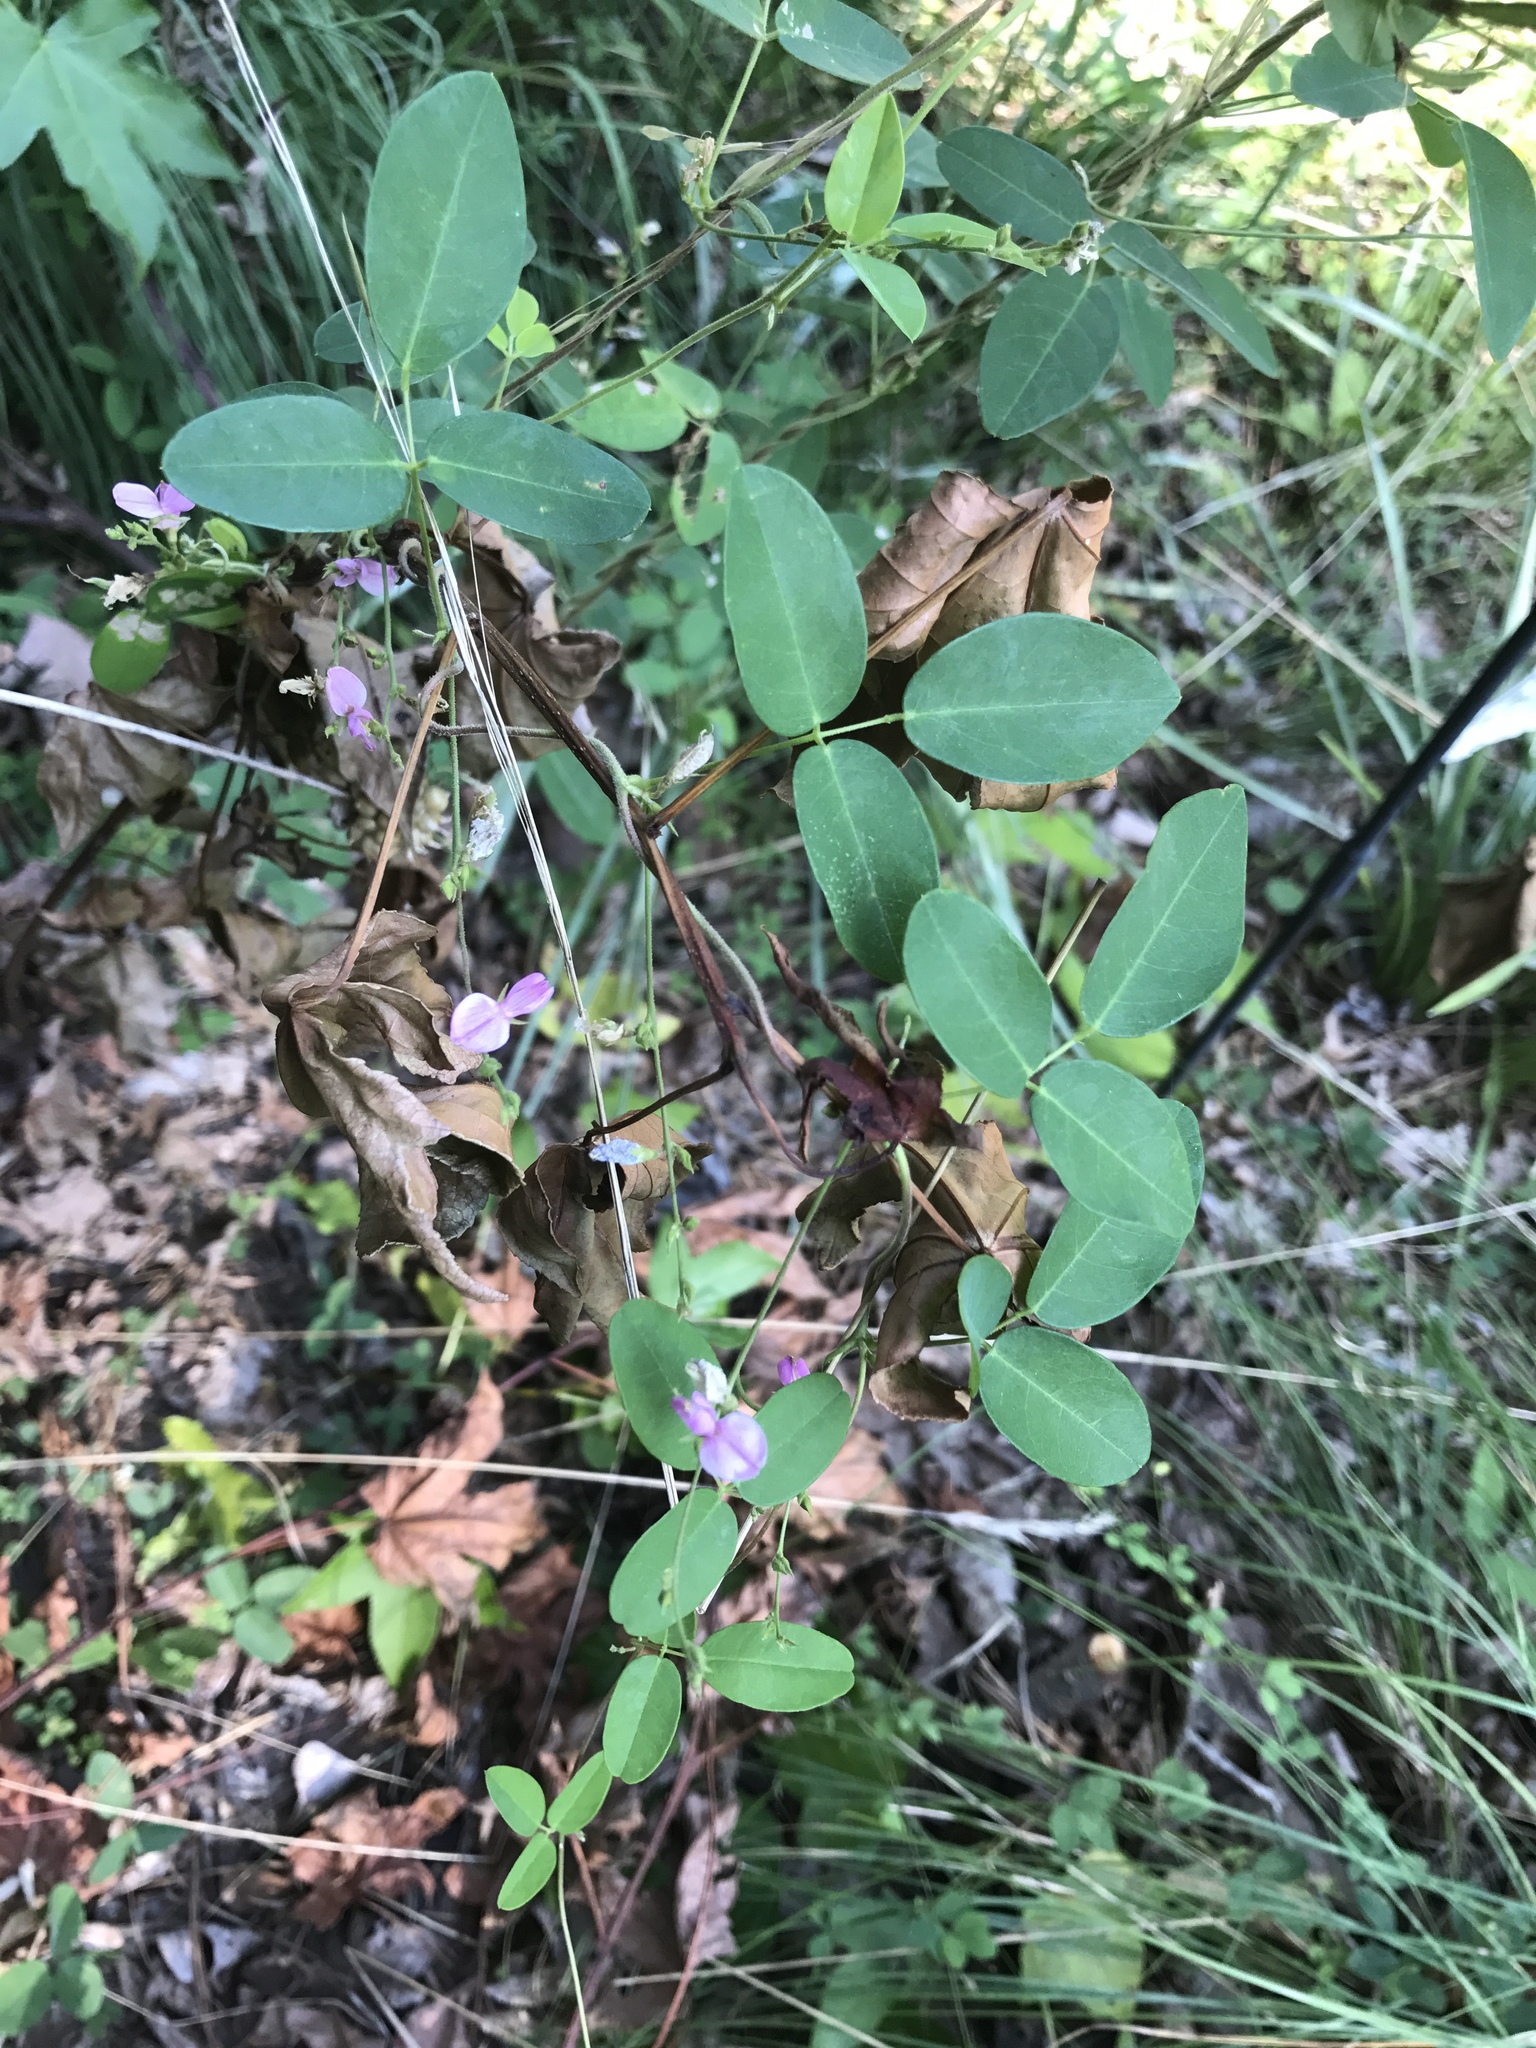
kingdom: Plantae
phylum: Tracheophyta
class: Magnoliopsida
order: Fabales
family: Fabaceae
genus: Galactia
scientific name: Galactia regularis
